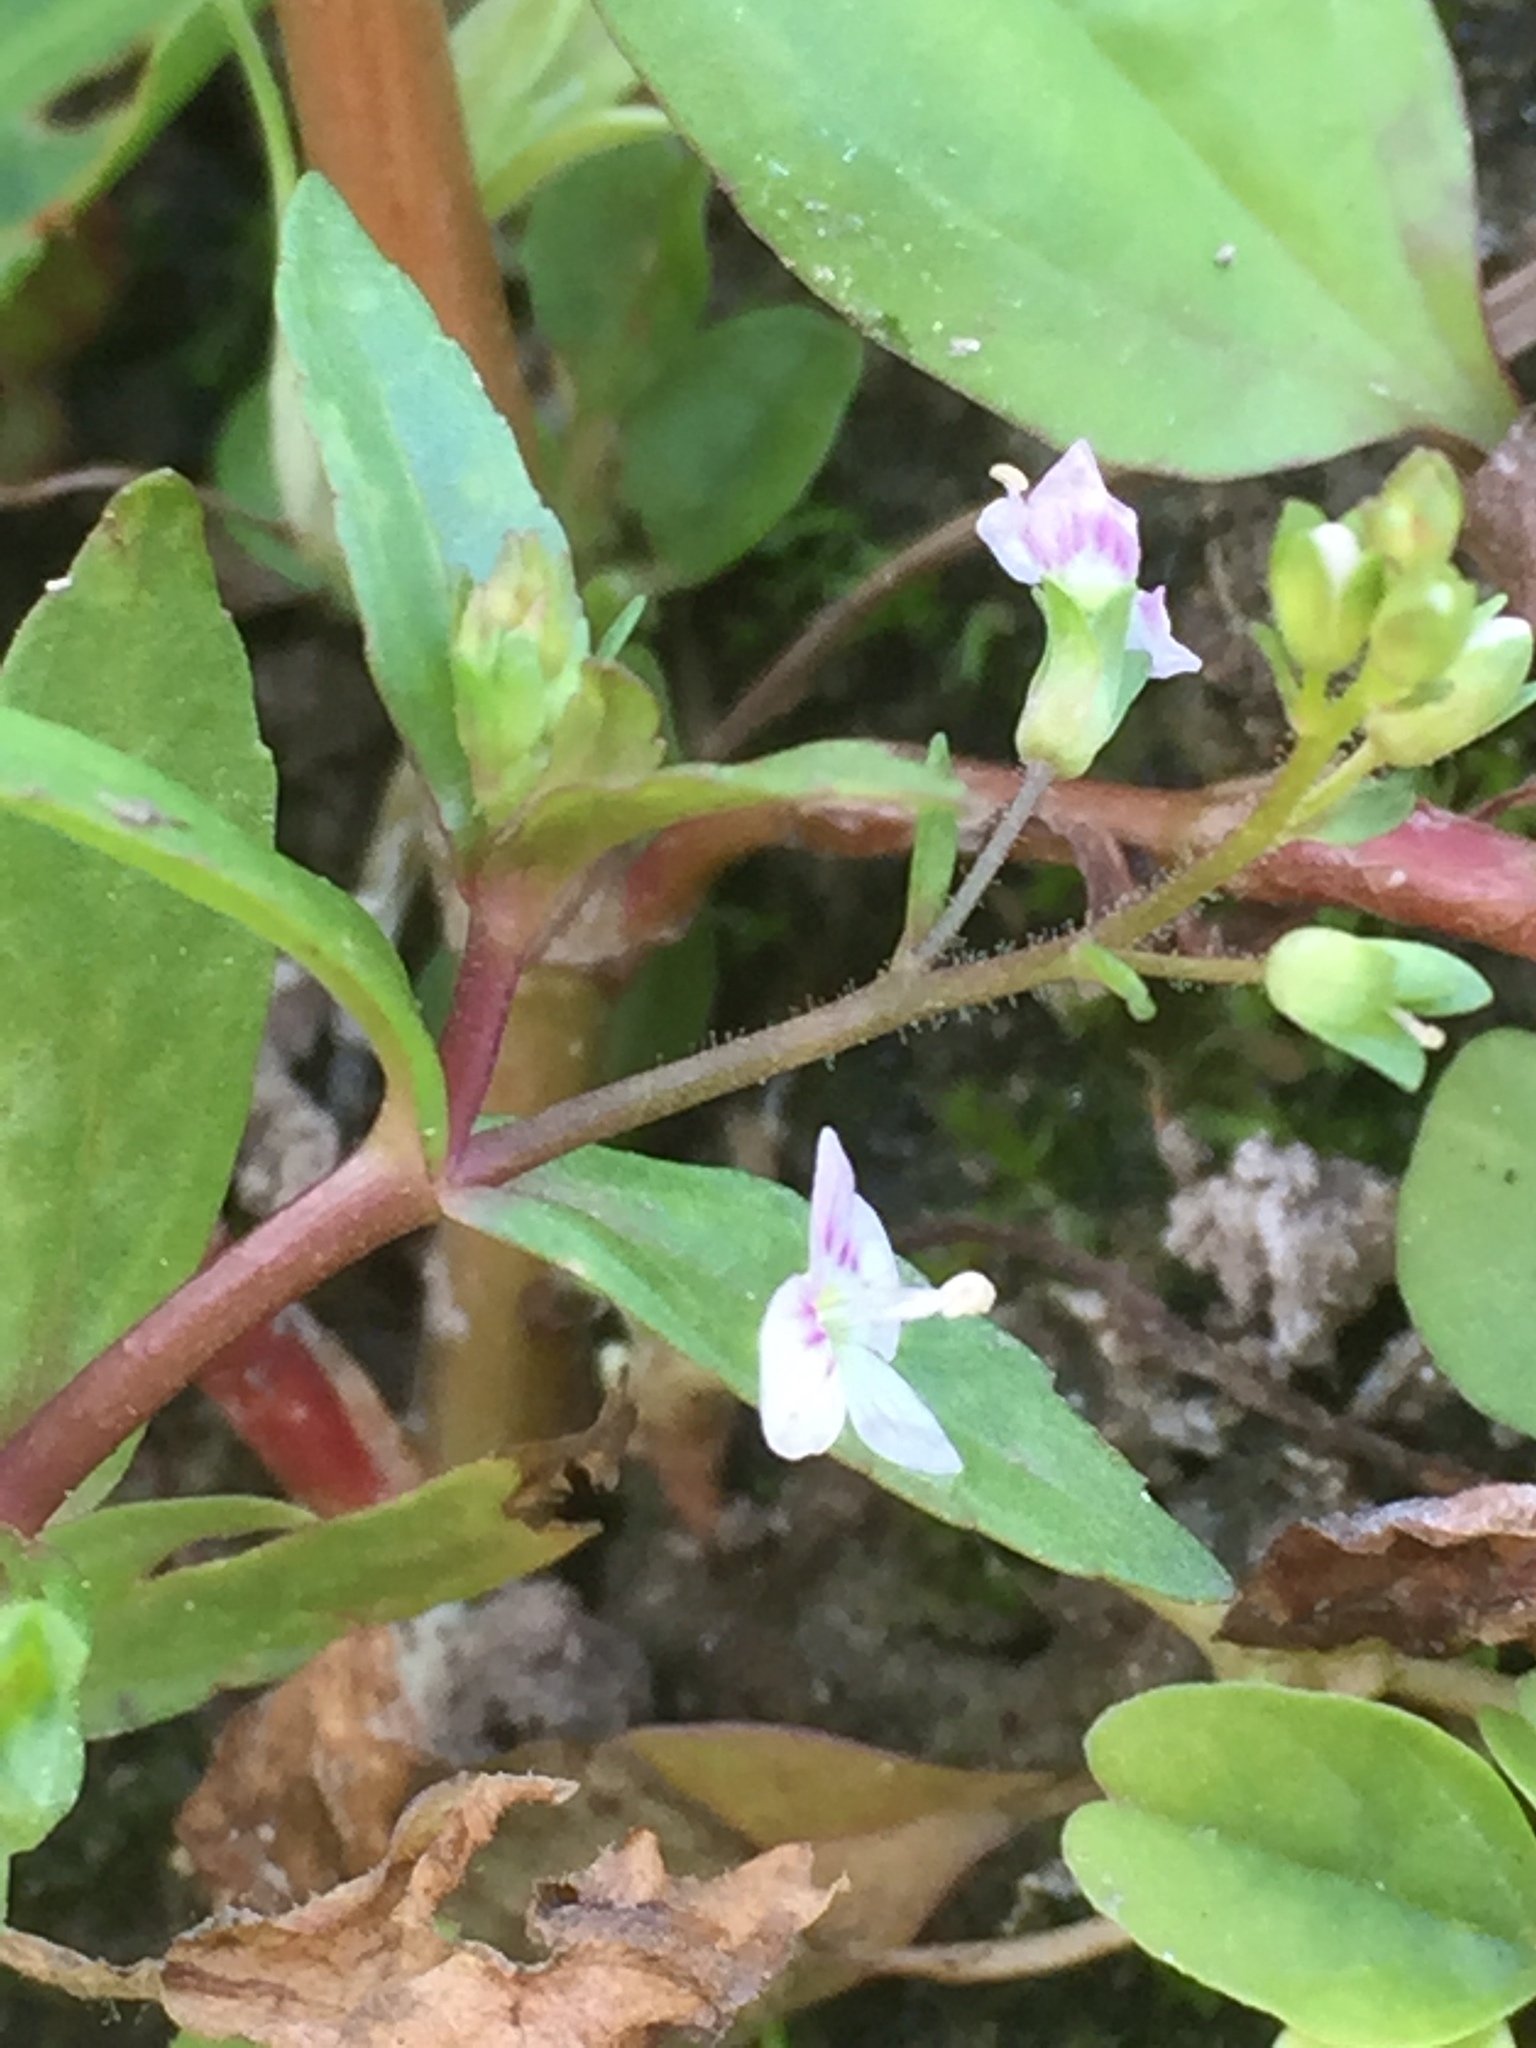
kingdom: Plantae
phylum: Tracheophyta
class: Magnoliopsida
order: Lamiales
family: Plantaginaceae
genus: Veronica
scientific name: Veronica catenata
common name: Pink water-speedwell
